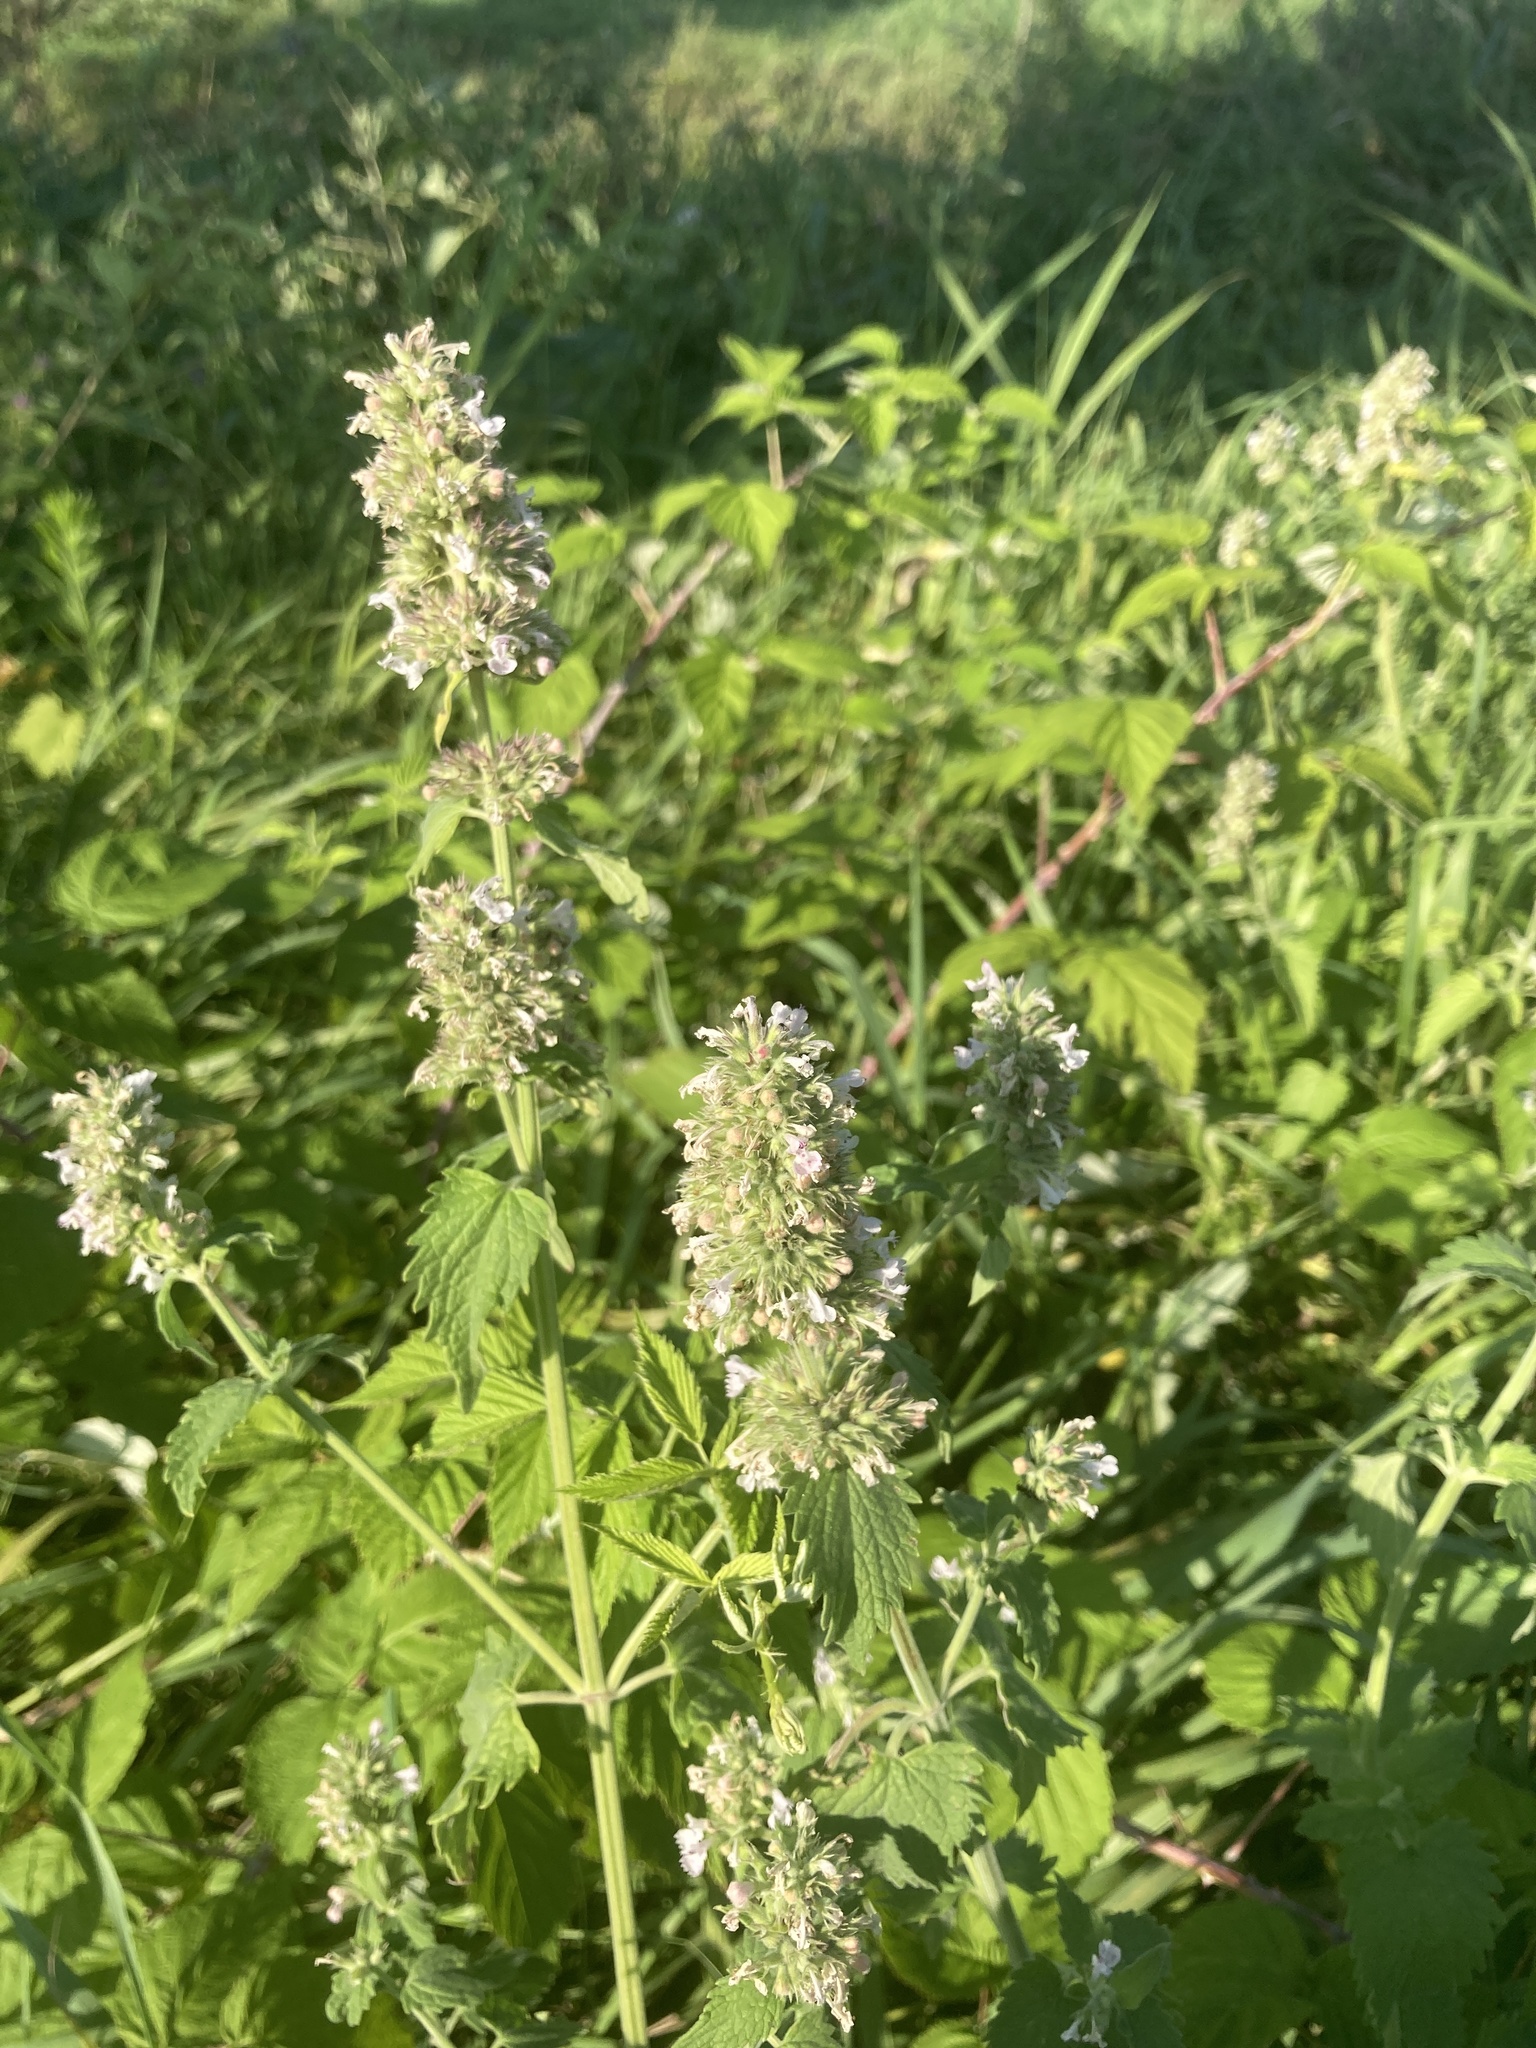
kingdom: Plantae
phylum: Tracheophyta
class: Magnoliopsida
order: Lamiales
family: Lamiaceae
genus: Nepeta
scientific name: Nepeta cataria
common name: Catnip
